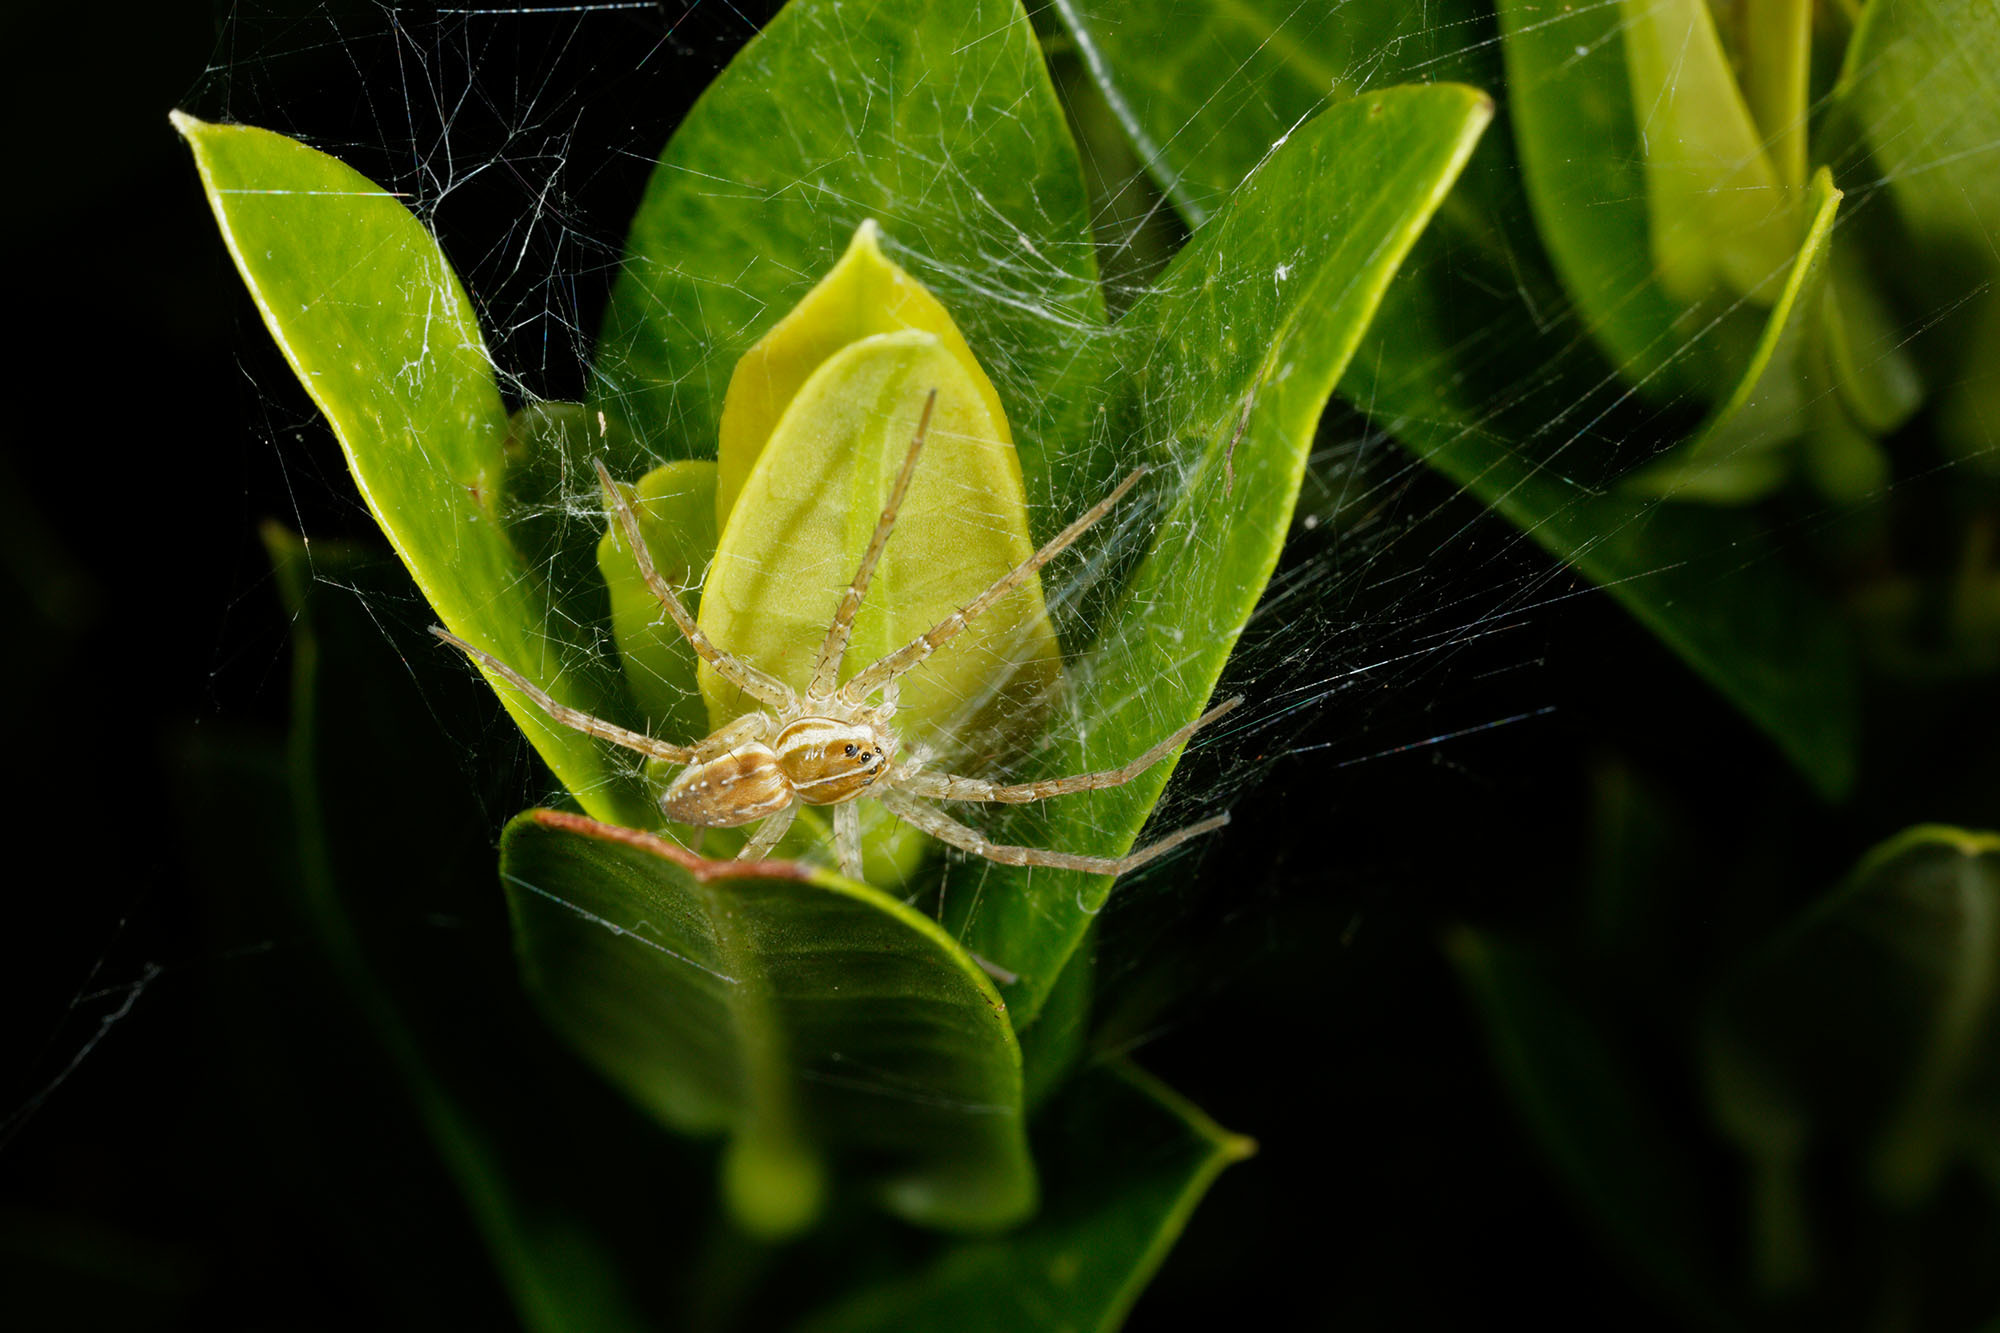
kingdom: Animalia
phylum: Arthropoda
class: Arachnida
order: Araneae
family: Pisauridae
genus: Dolomedes
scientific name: Dolomedes facetus
